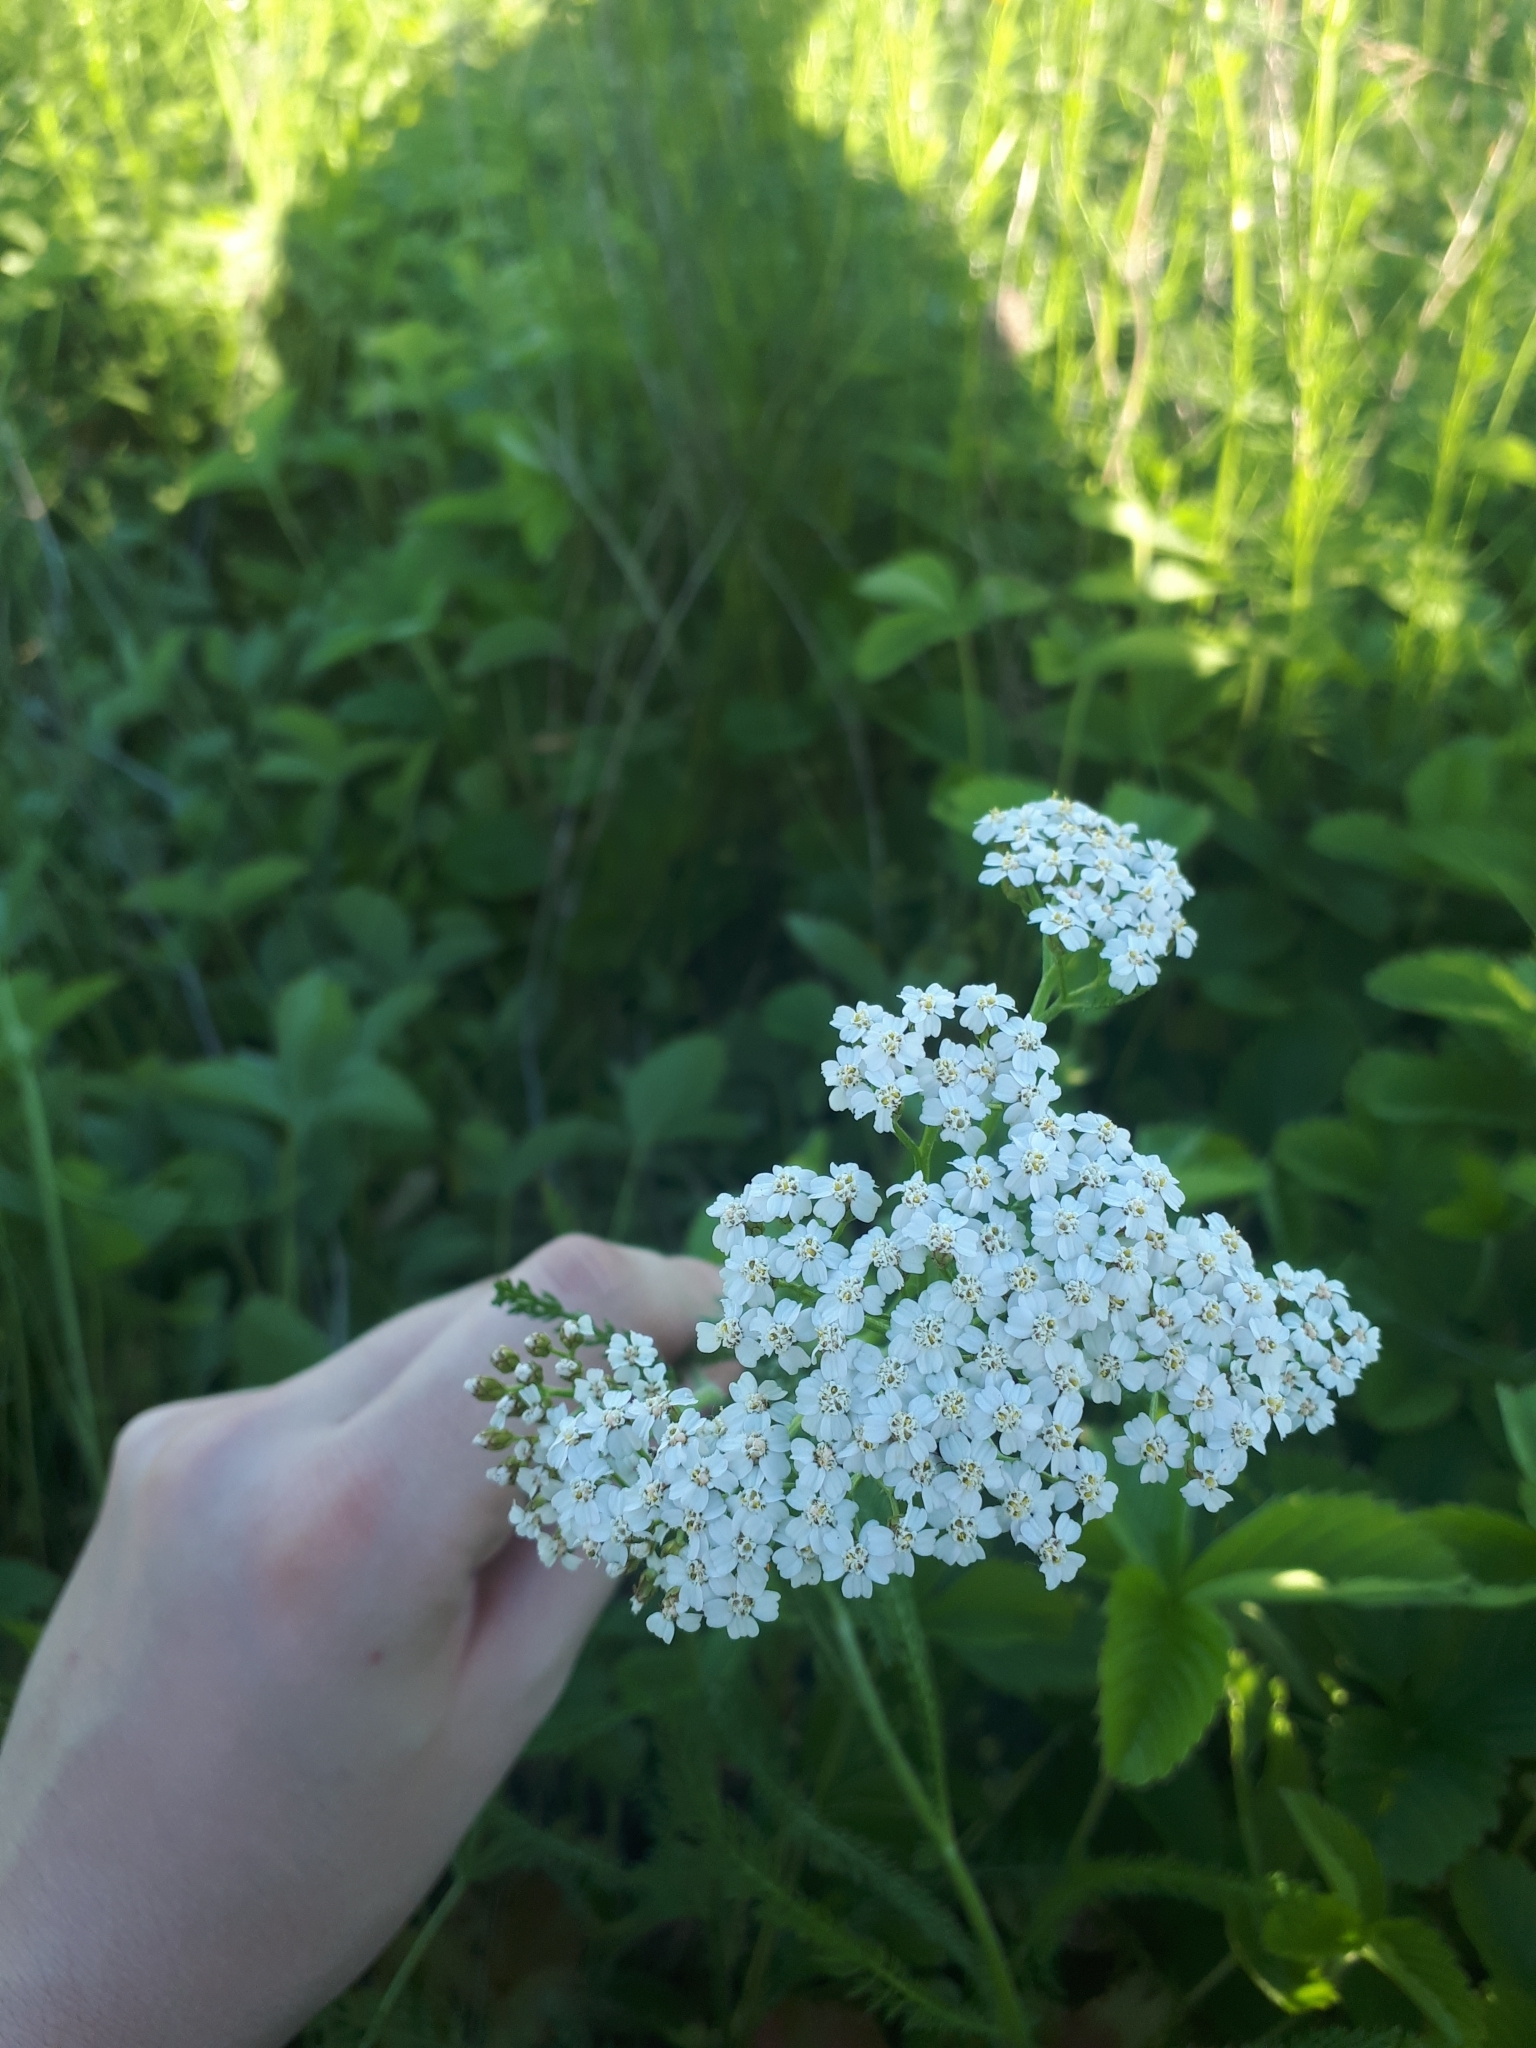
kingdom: Plantae
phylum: Tracheophyta
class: Magnoliopsida
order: Asterales
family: Asteraceae
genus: Achillea
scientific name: Achillea millefolium
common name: Yarrow
